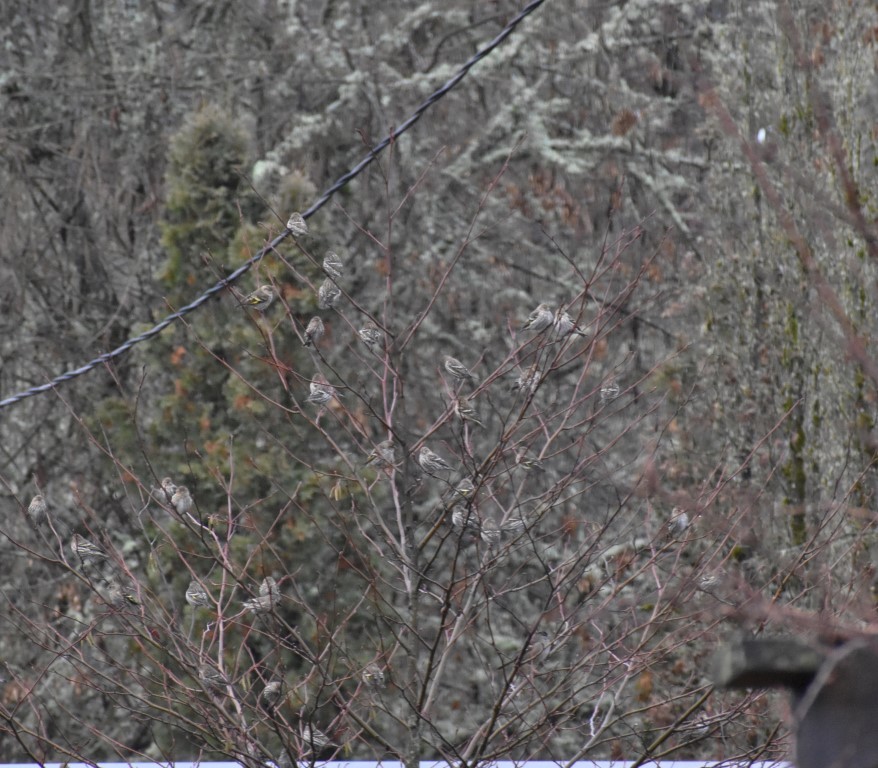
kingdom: Animalia
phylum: Chordata
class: Aves
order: Passeriformes
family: Fringillidae
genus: Spinus
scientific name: Spinus pinus
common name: Pine siskin
